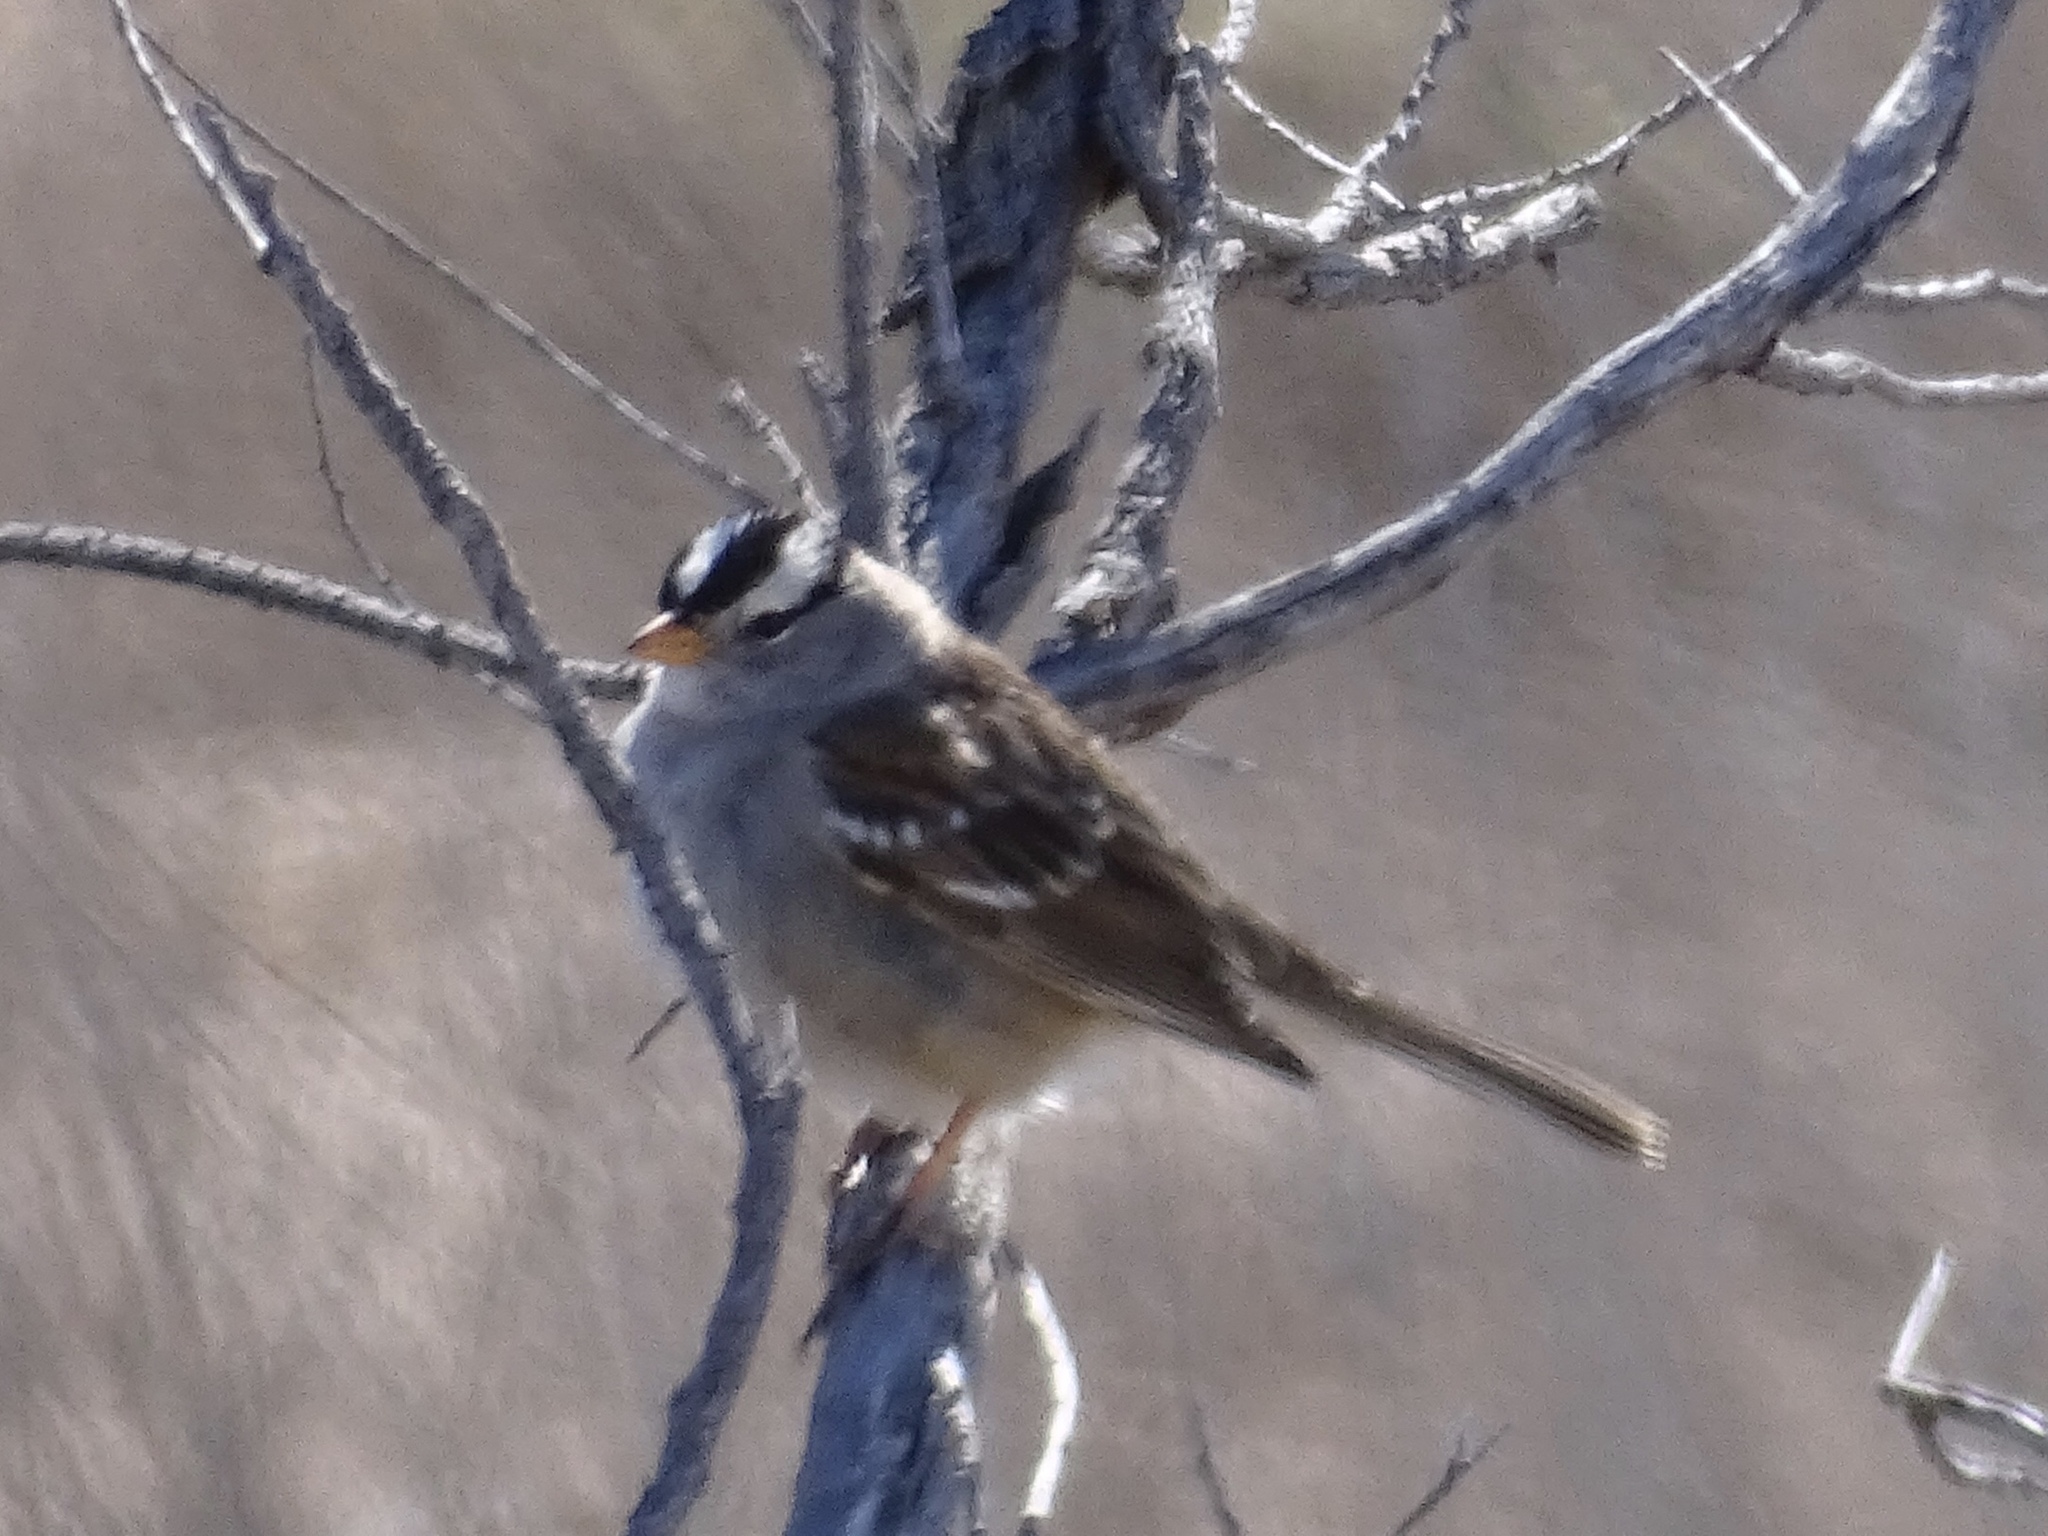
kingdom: Animalia
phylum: Chordata
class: Aves
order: Passeriformes
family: Passerellidae
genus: Zonotrichia
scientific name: Zonotrichia leucophrys
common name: White-crowned sparrow
